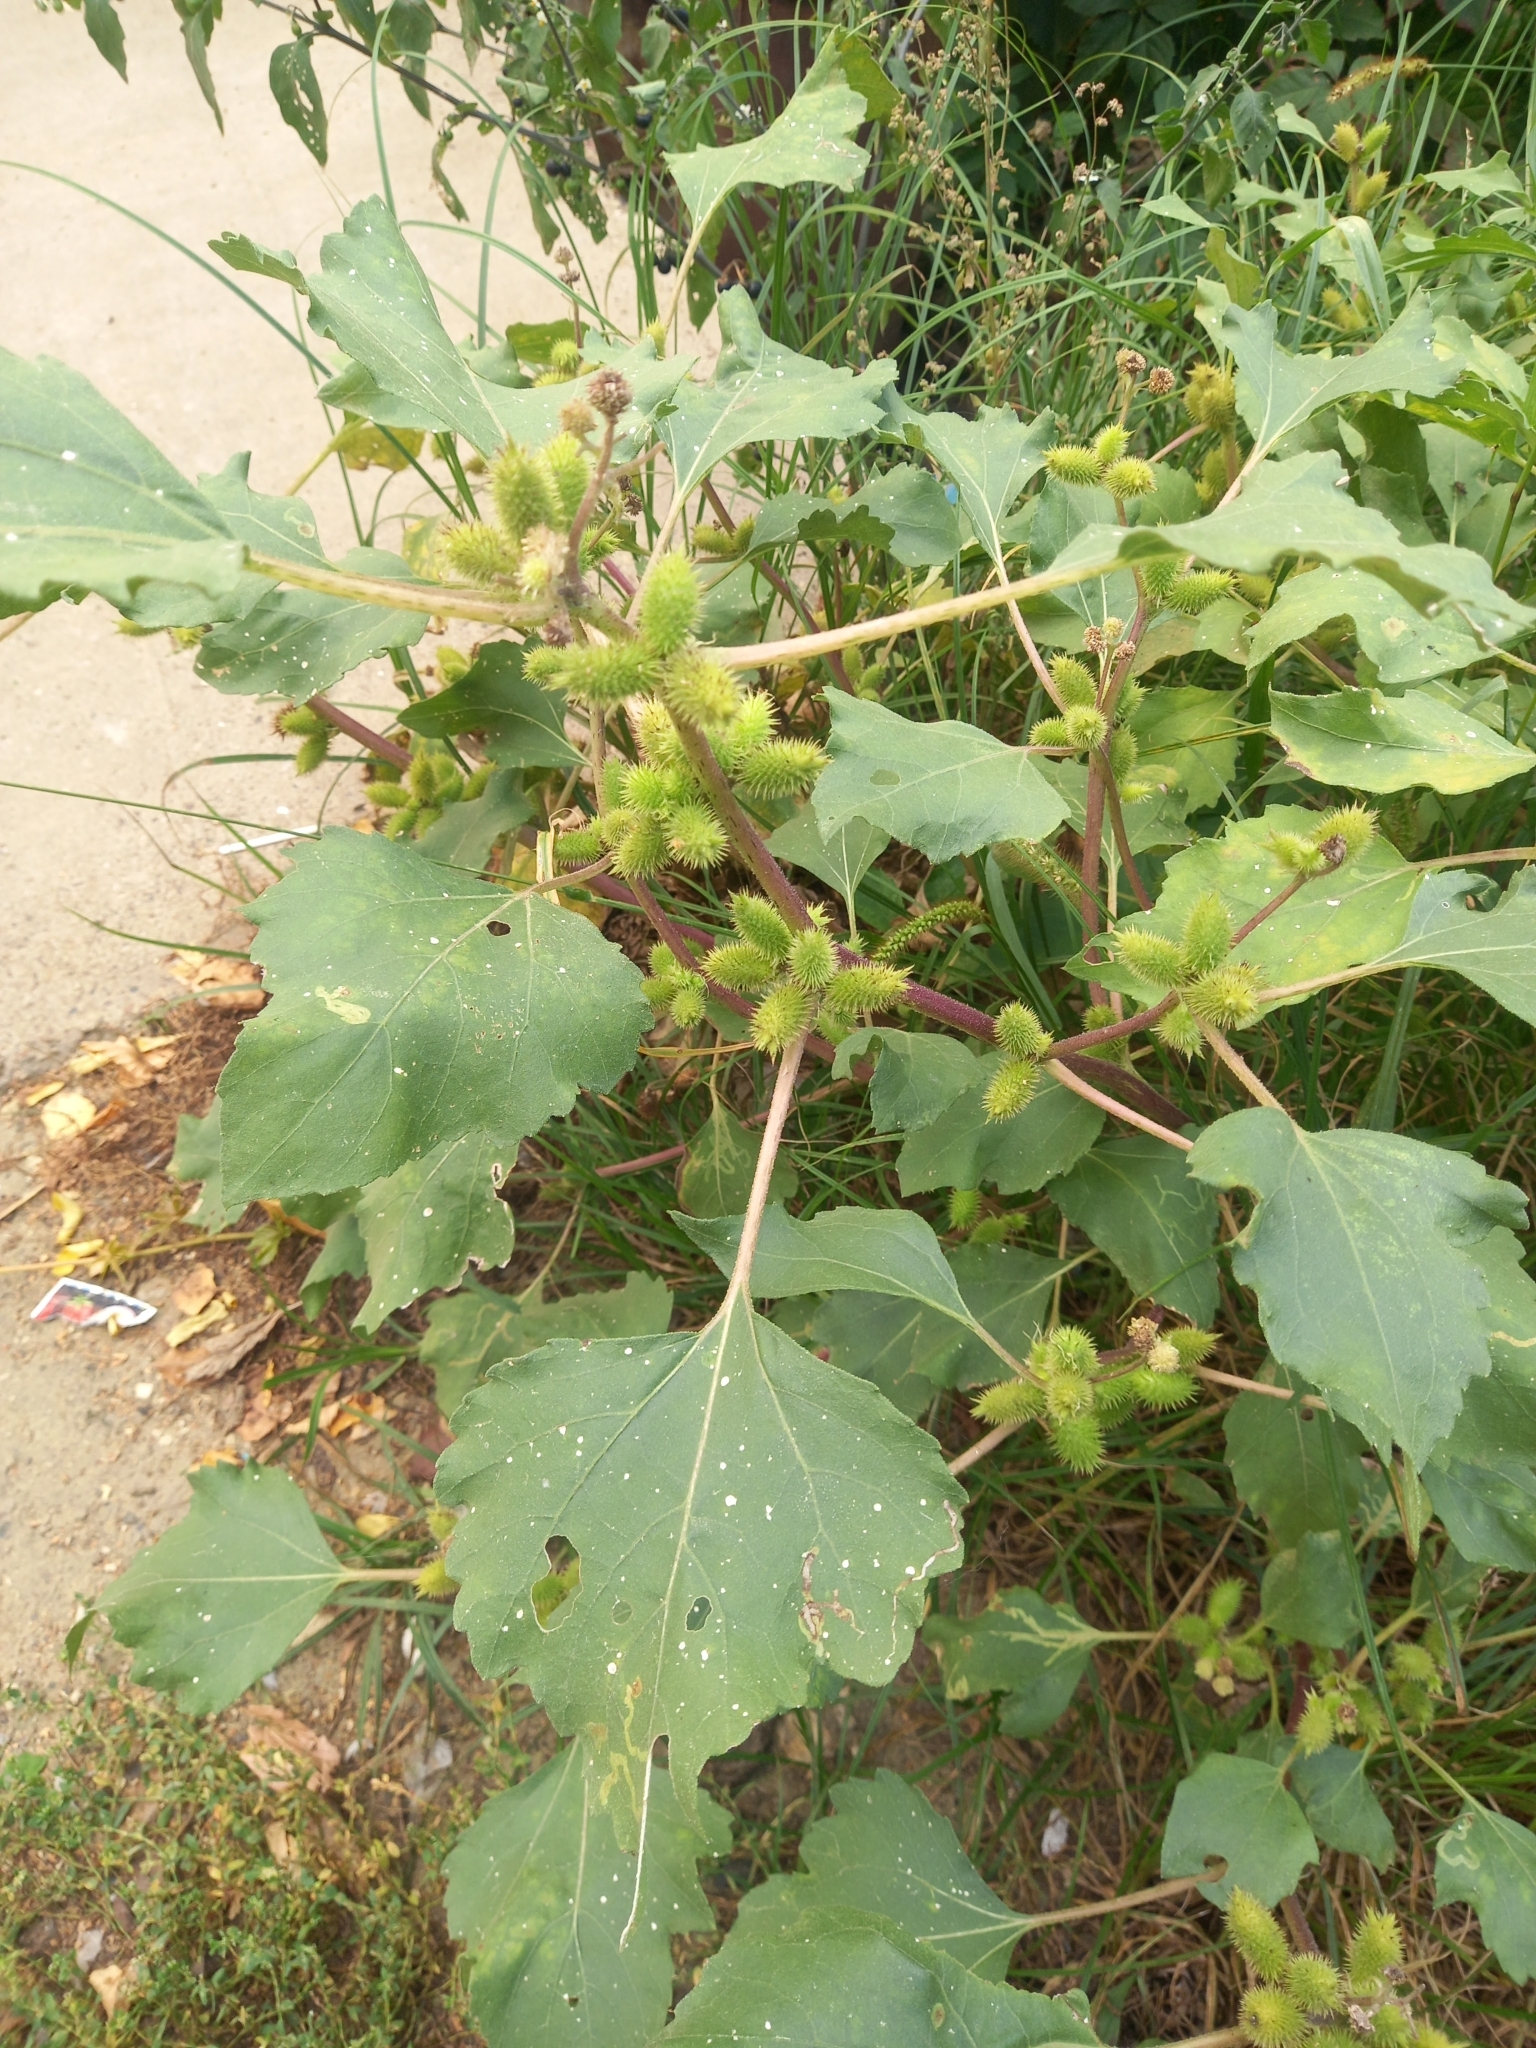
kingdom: Plantae
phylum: Tracheophyta
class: Magnoliopsida
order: Asterales
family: Asteraceae
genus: Xanthium
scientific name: Xanthium orientale
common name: Californian burr
